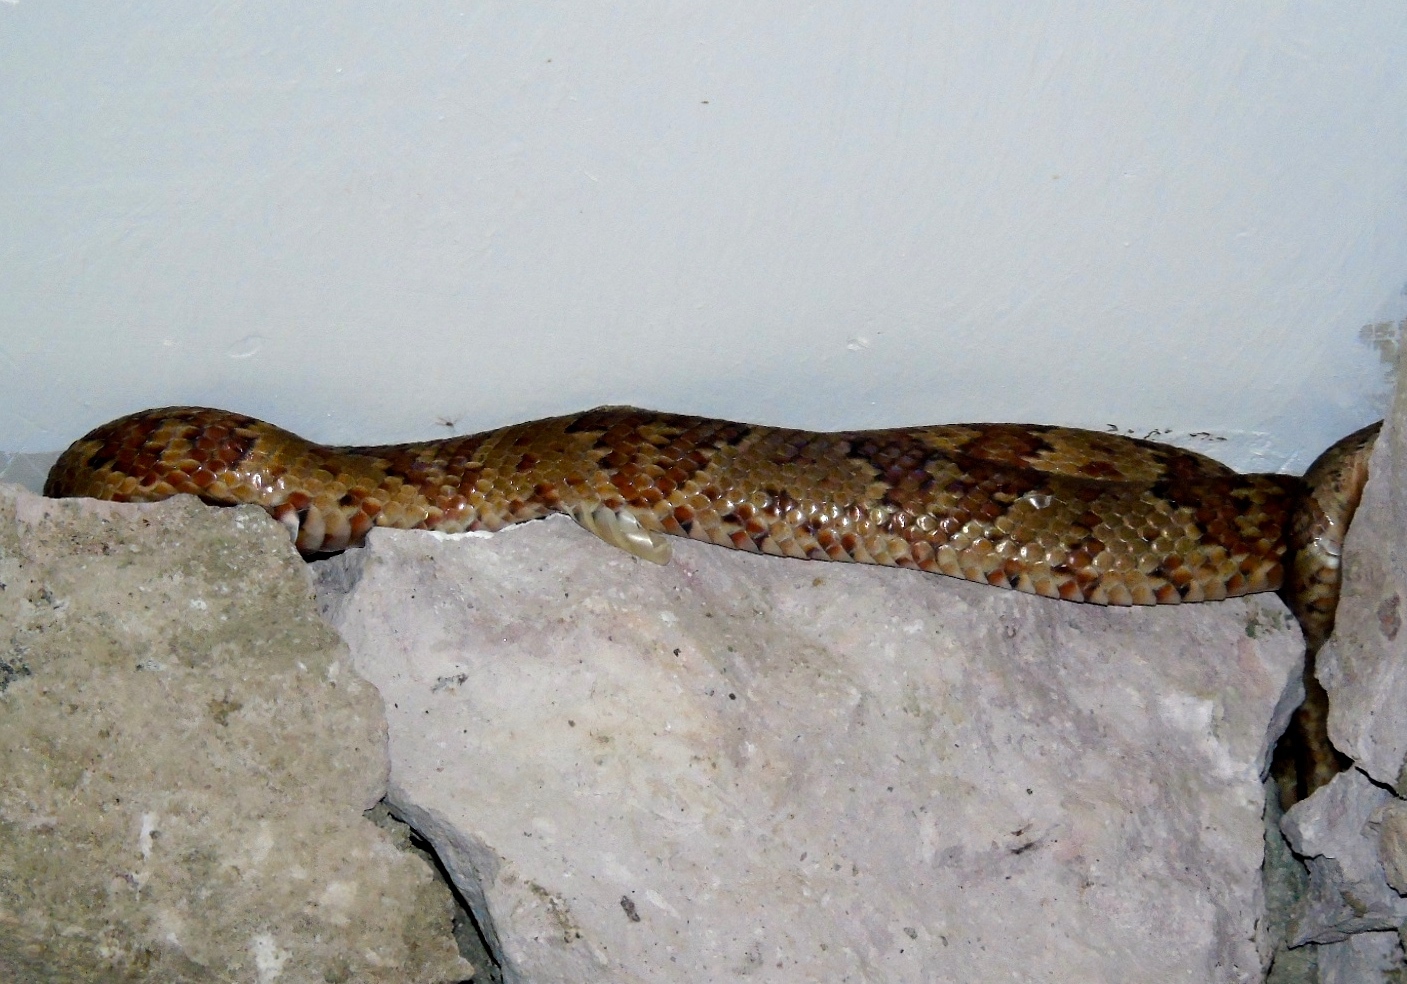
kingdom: Animalia
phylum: Chordata
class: Squamata
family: Colubridae
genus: Trimorphodon
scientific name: Trimorphodon paucimaculatus
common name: Sinaloan lyresnake
